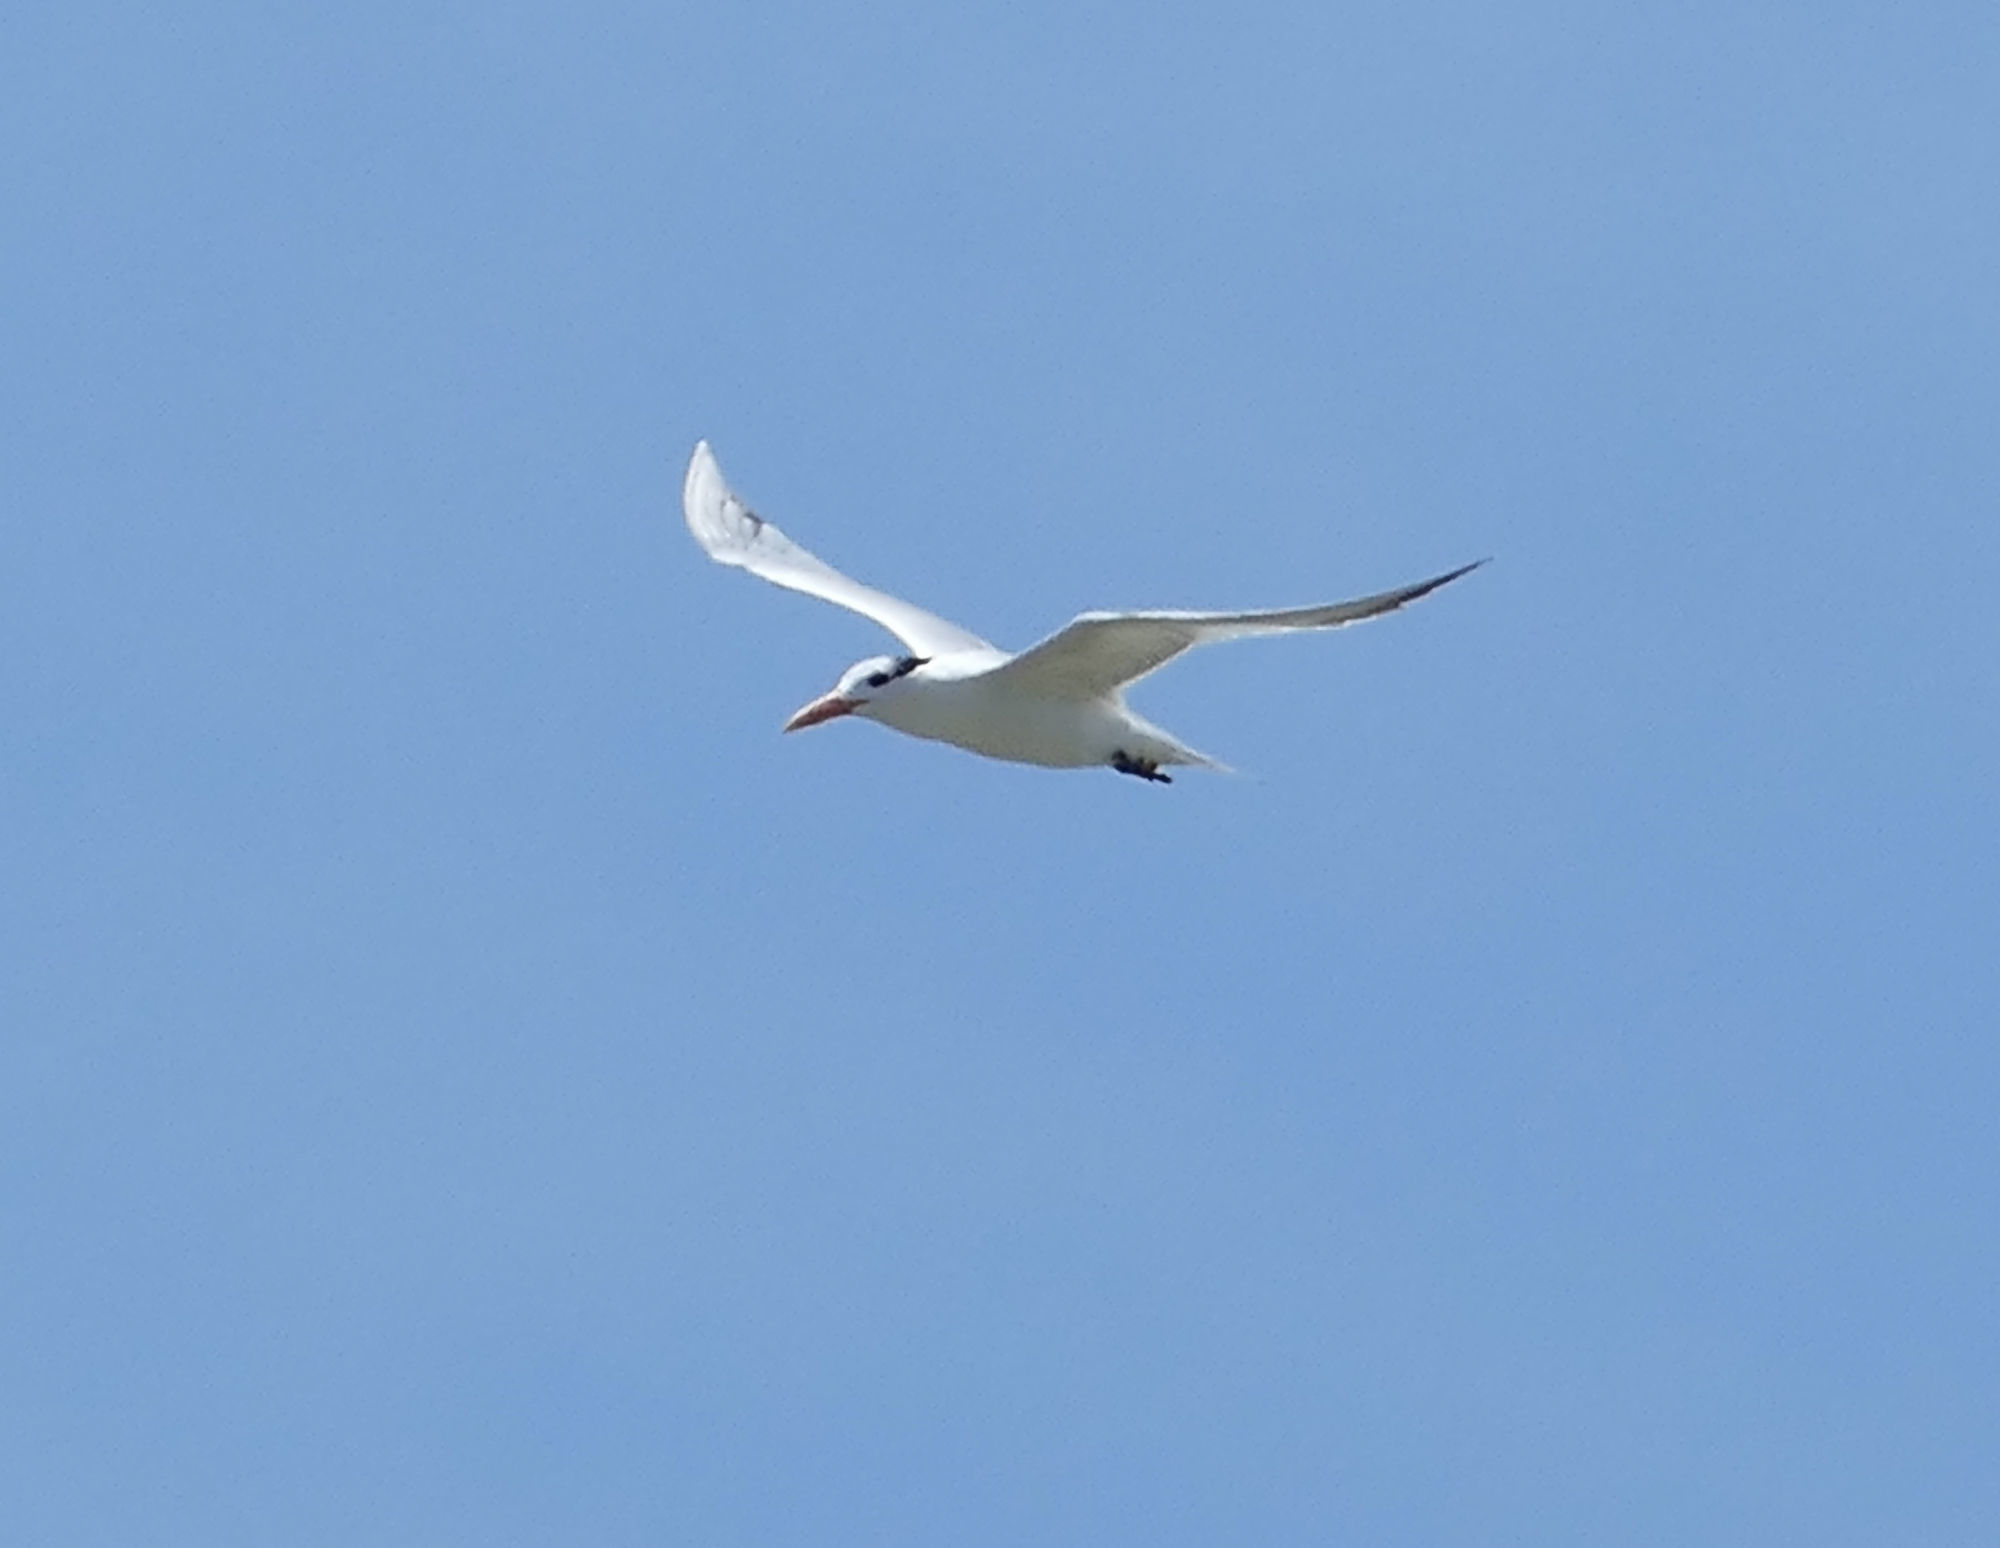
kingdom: Animalia
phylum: Chordata
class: Aves
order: Charadriiformes
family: Laridae
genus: Thalasseus
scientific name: Thalasseus maximus
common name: Royal tern
